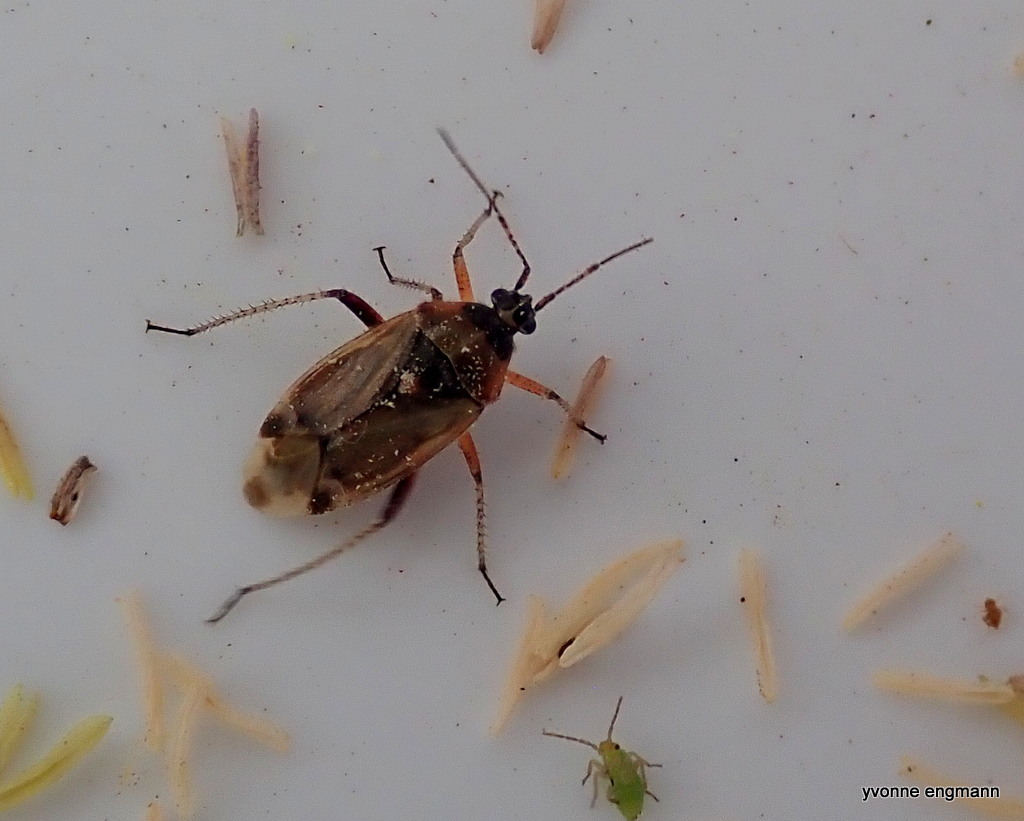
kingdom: Animalia
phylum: Arthropoda
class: Insecta
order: Hemiptera
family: Miridae
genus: Harpocera
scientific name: Harpocera thoracica
